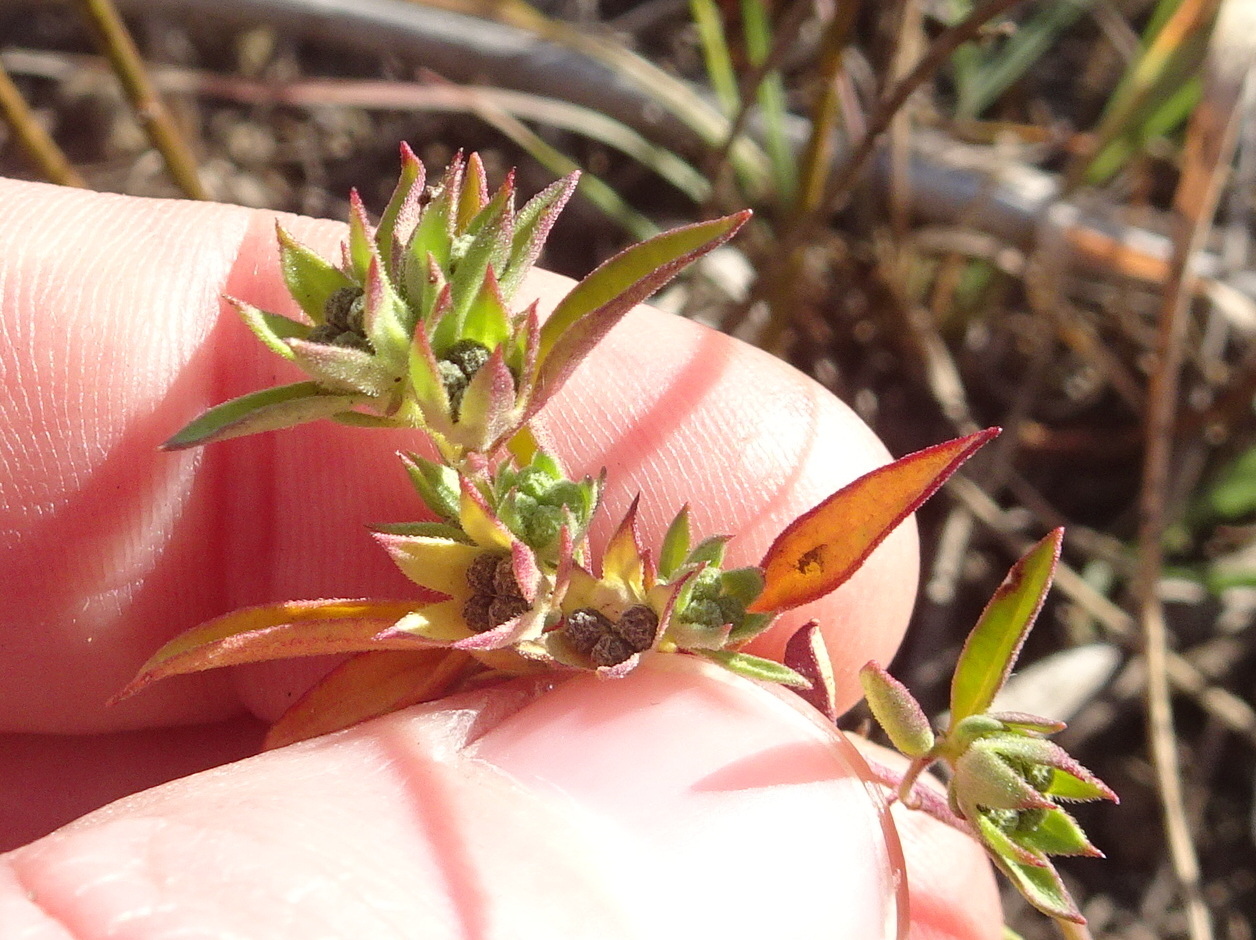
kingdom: Plantae
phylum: Tracheophyta
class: Magnoliopsida
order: Lamiales
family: Lamiaceae
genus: Trichostema
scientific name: Trichostema brachiatum
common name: False pennyroyal
